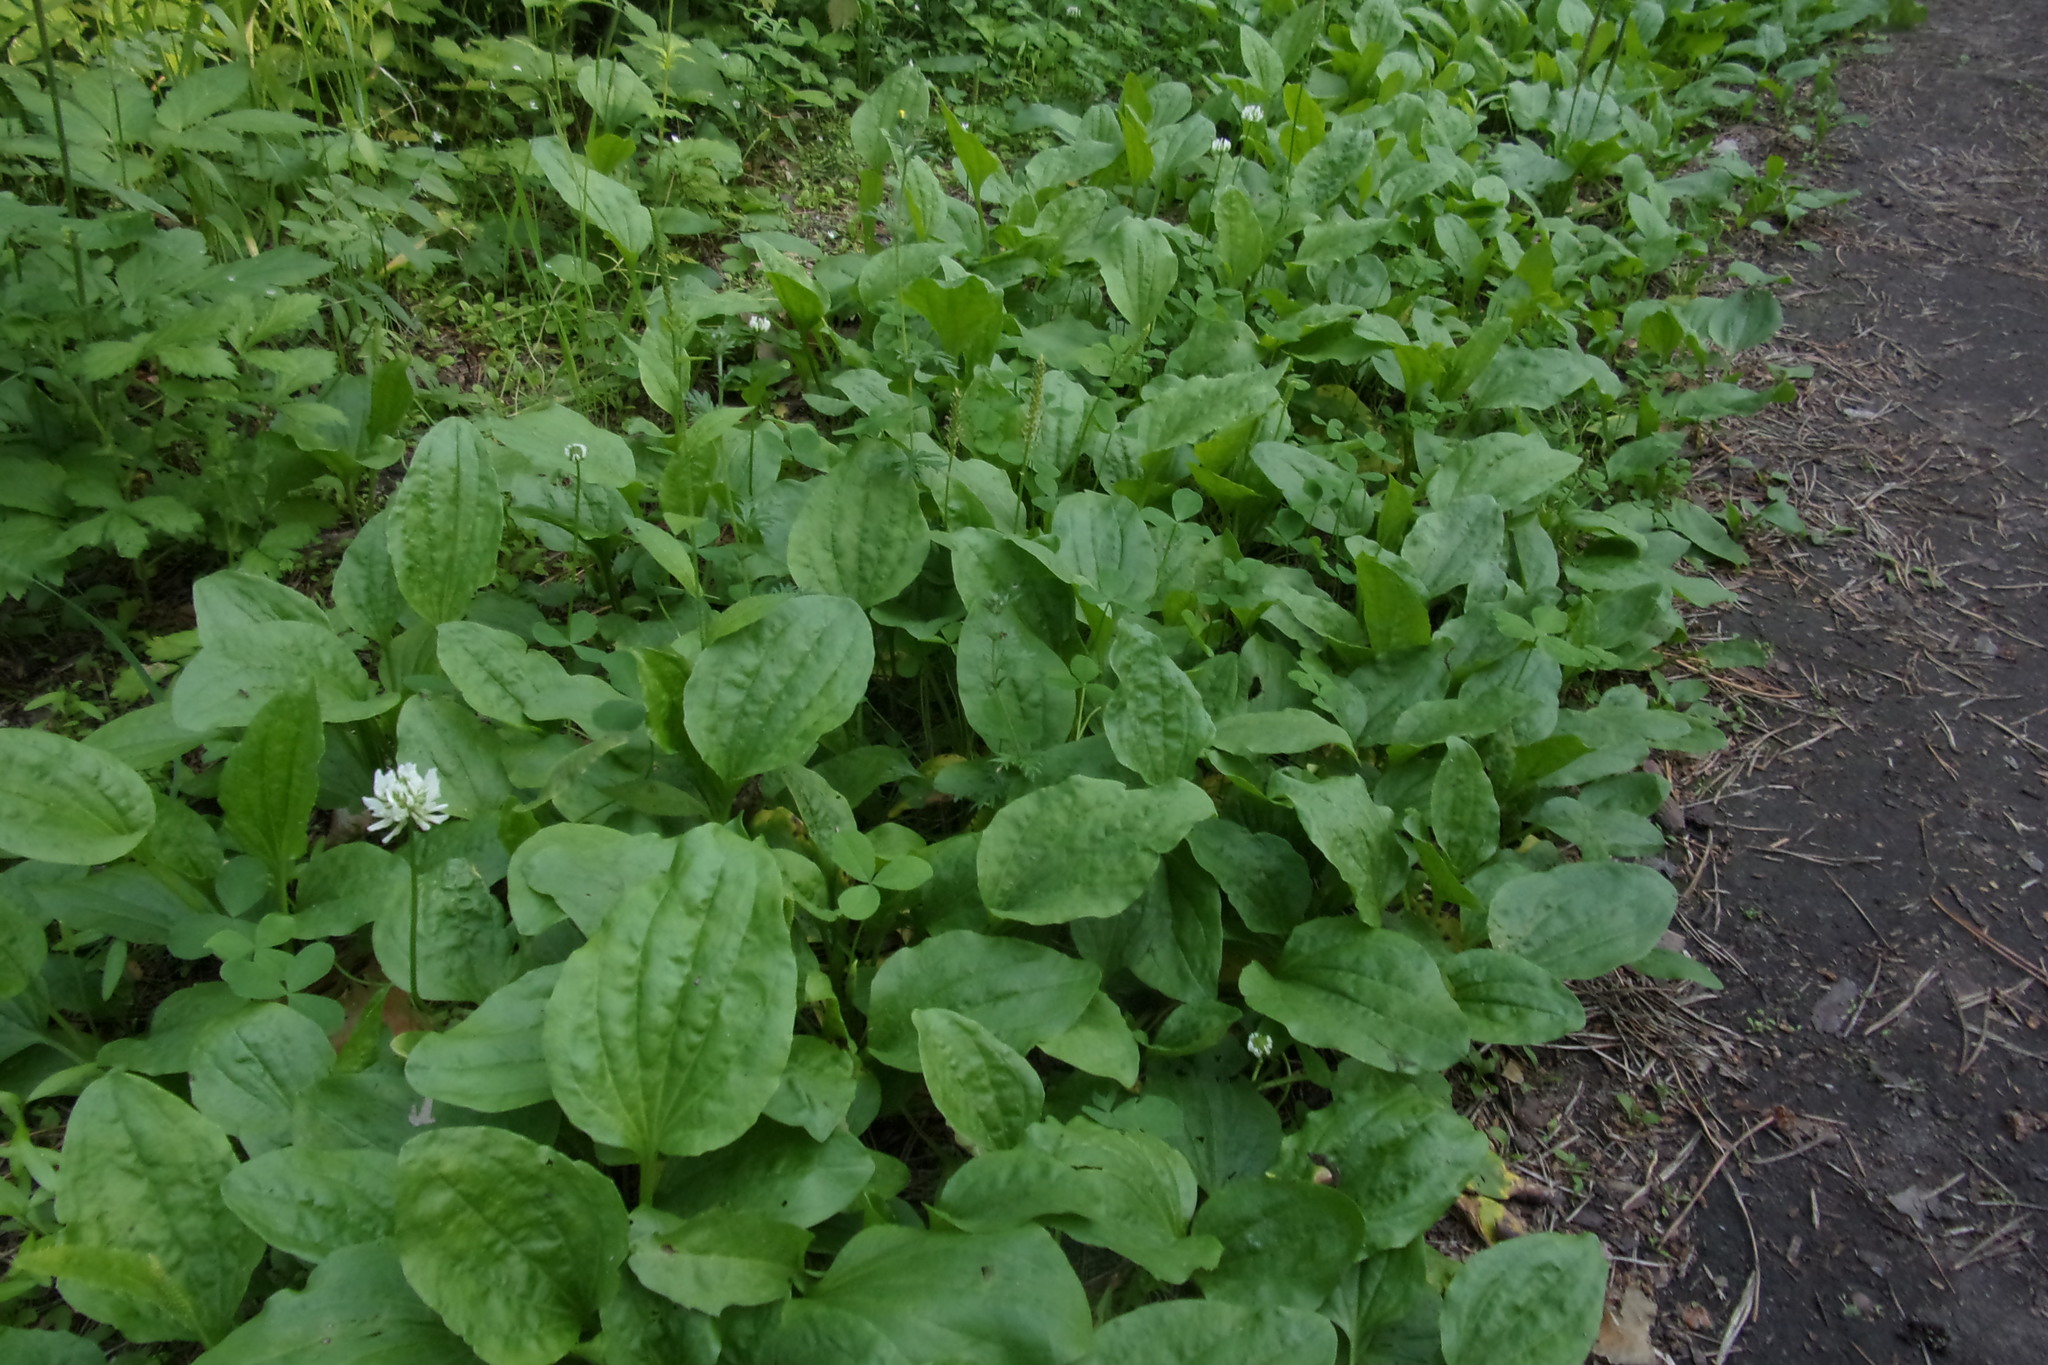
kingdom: Plantae
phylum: Tracheophyta
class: Magnoliopsida
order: Lamiales
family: Plantaginaceae
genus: Plantago
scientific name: Plantago major
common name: Common plantain
